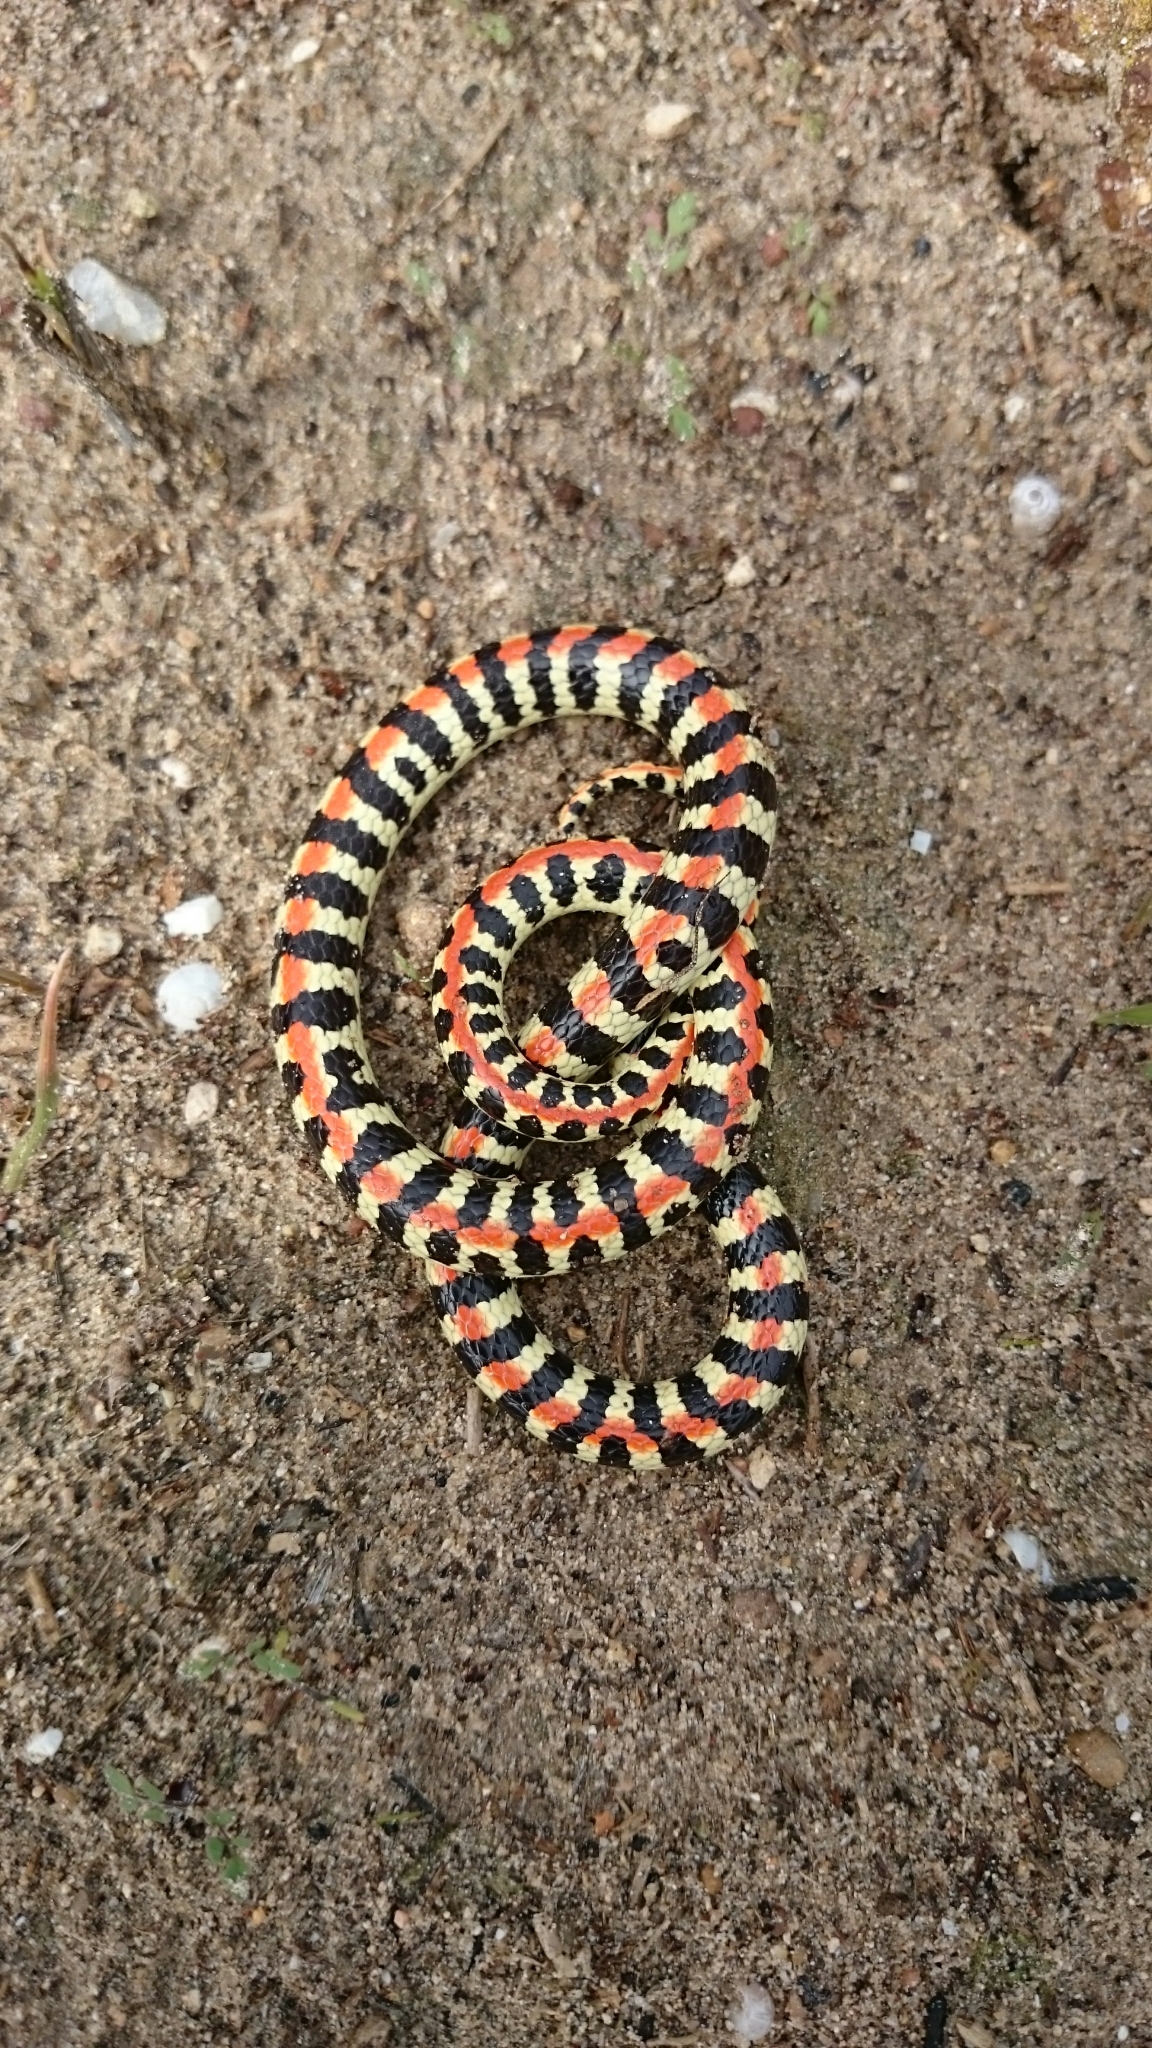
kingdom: Animalia
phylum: Chordata
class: Squamata
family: Atractaspididae
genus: Homoroselaps
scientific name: Homoroselaps lacteus
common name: Spotted harlequin snake
